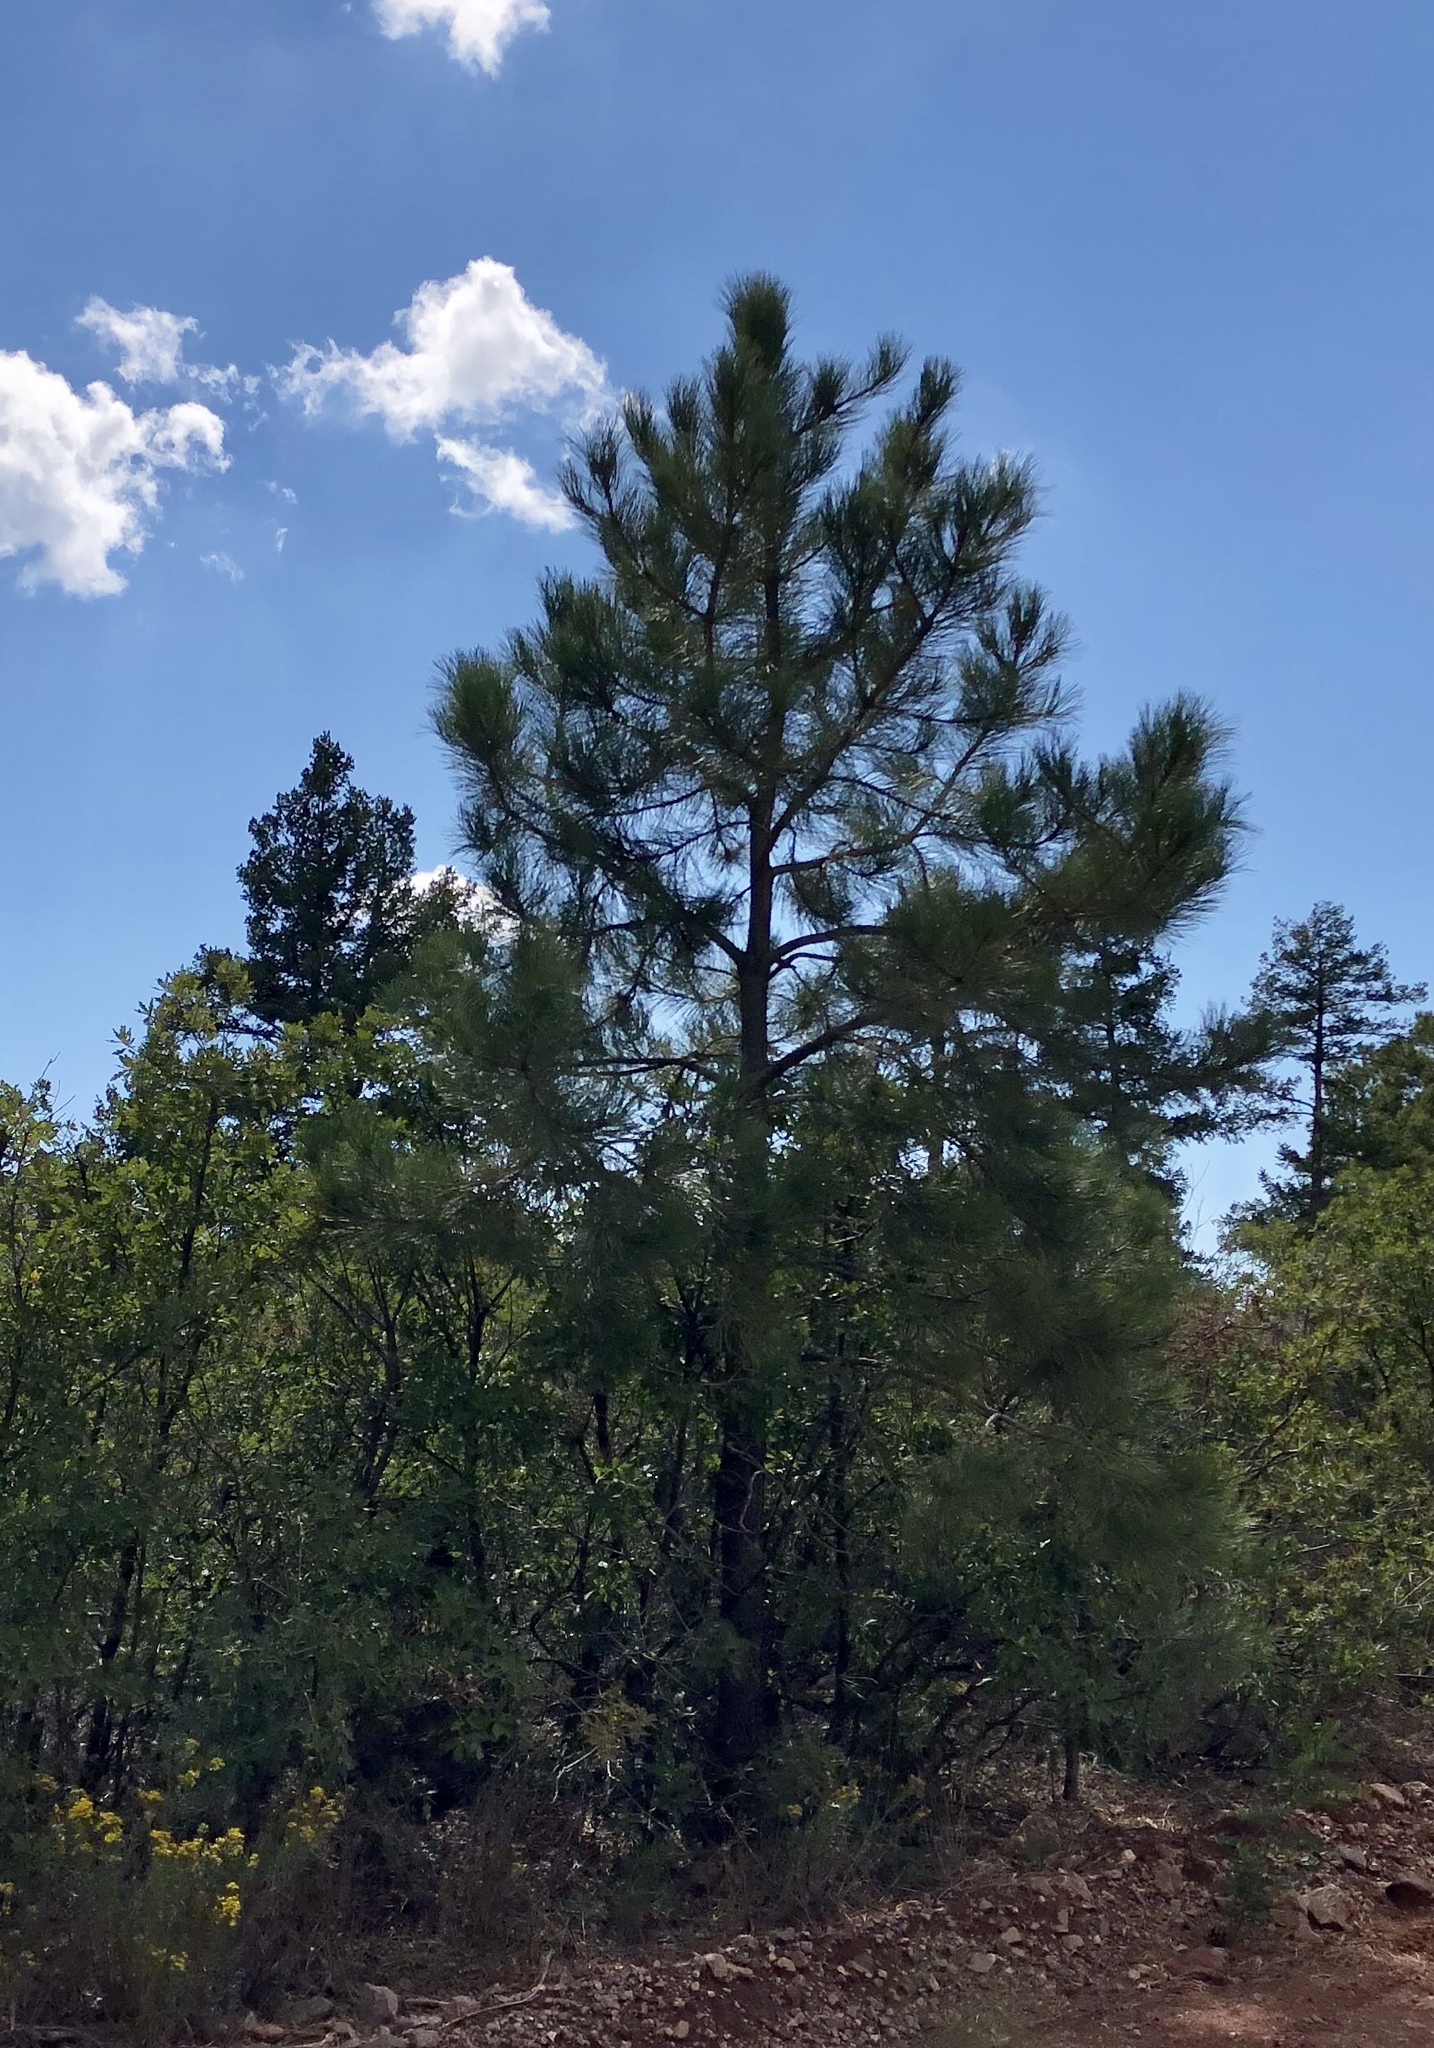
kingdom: Plantae
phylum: Tracheophyta
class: Pinopsida
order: Pinales
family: Pinaceae
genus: Pinus
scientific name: Pinus ponderosa
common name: Western yellow-pine
